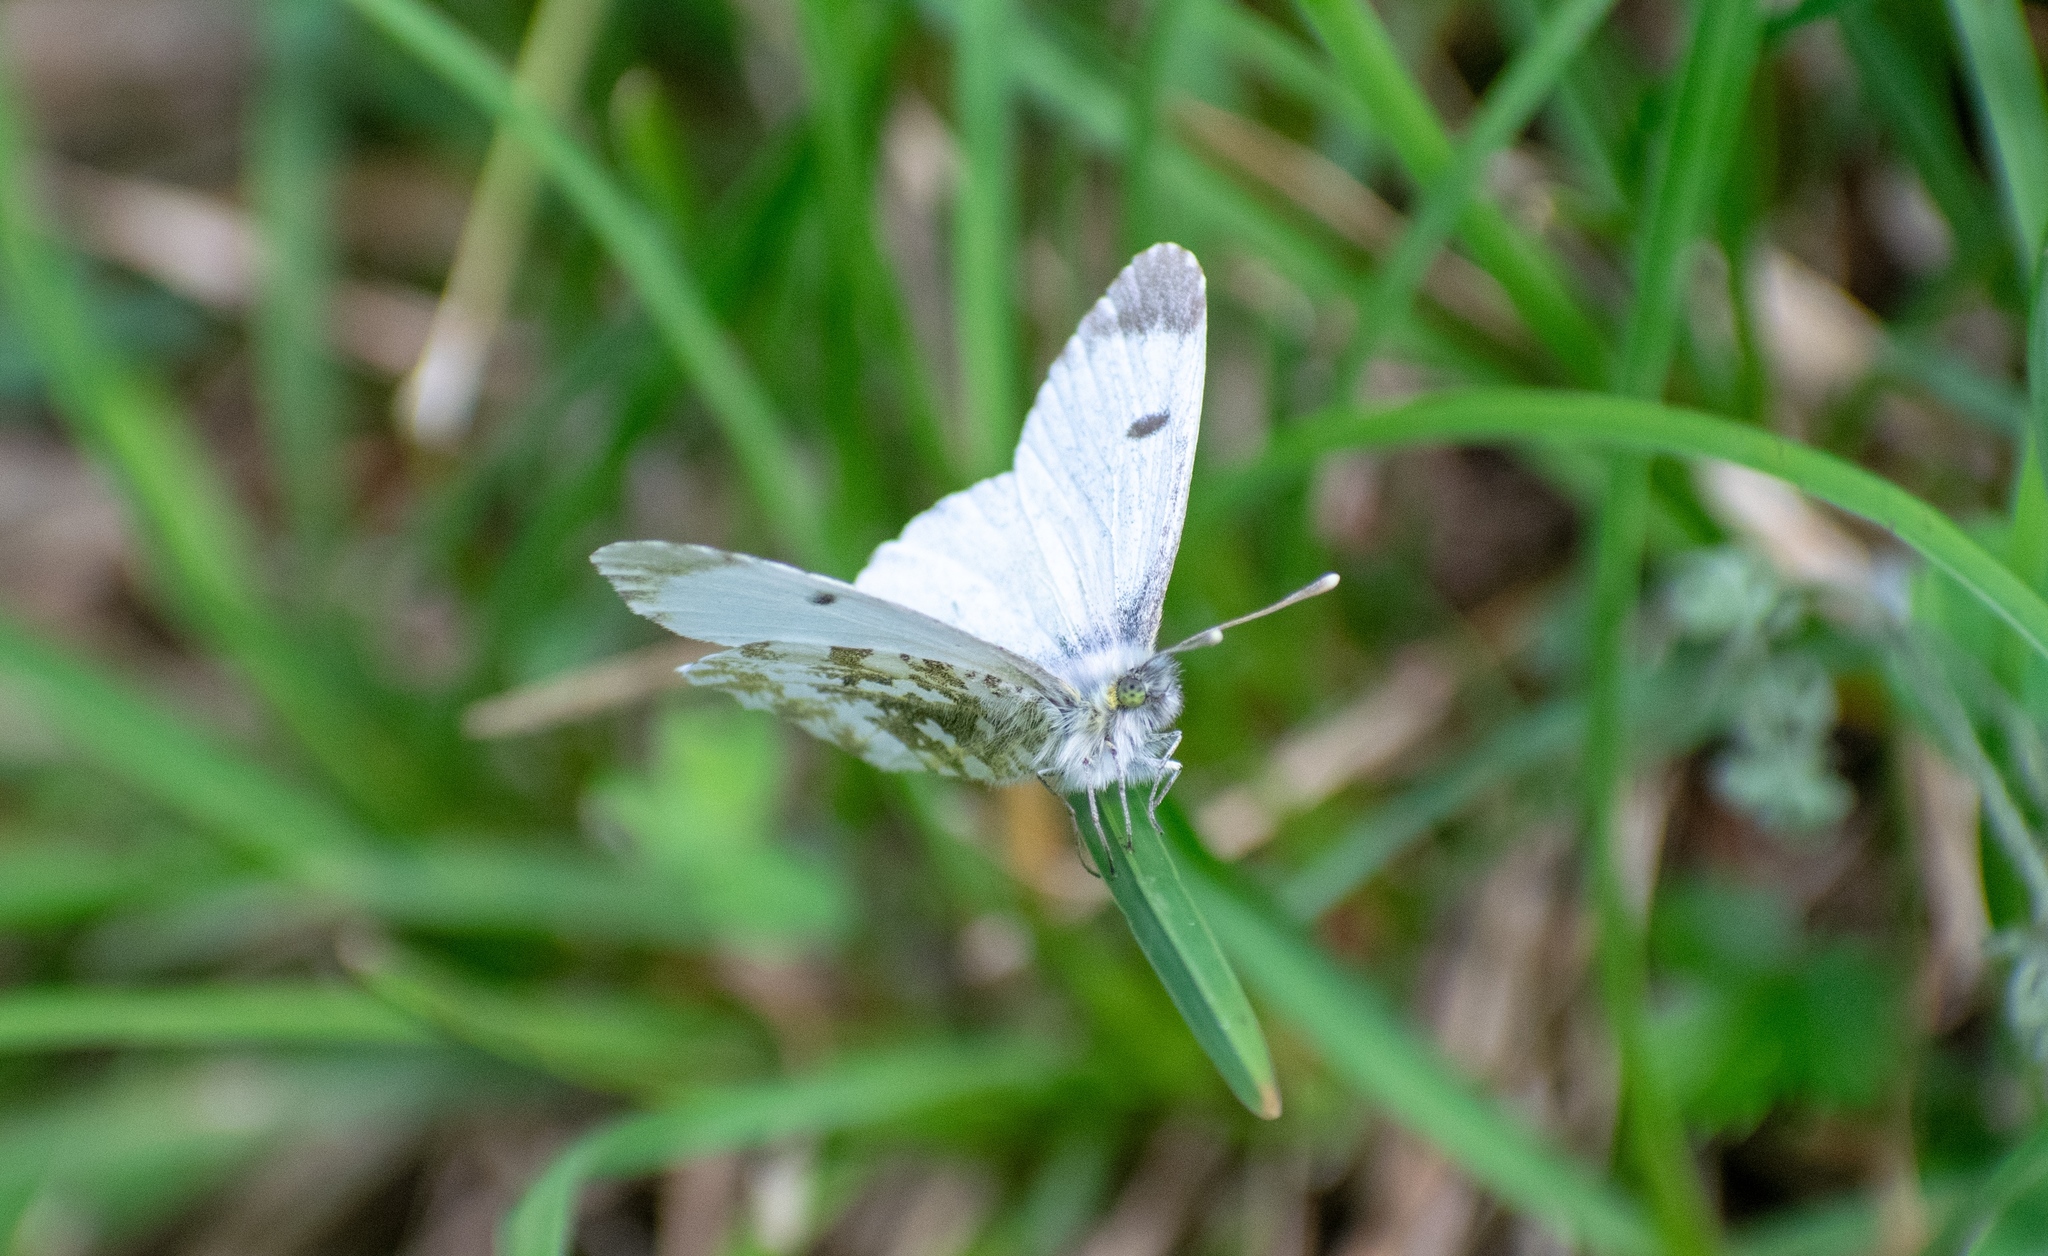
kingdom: Animalia
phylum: Arthropoda
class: Insecta
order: Lepidoptera
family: Pieridae
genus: Anthocharis
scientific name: Anthocharis cardamines
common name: Orange-tip
